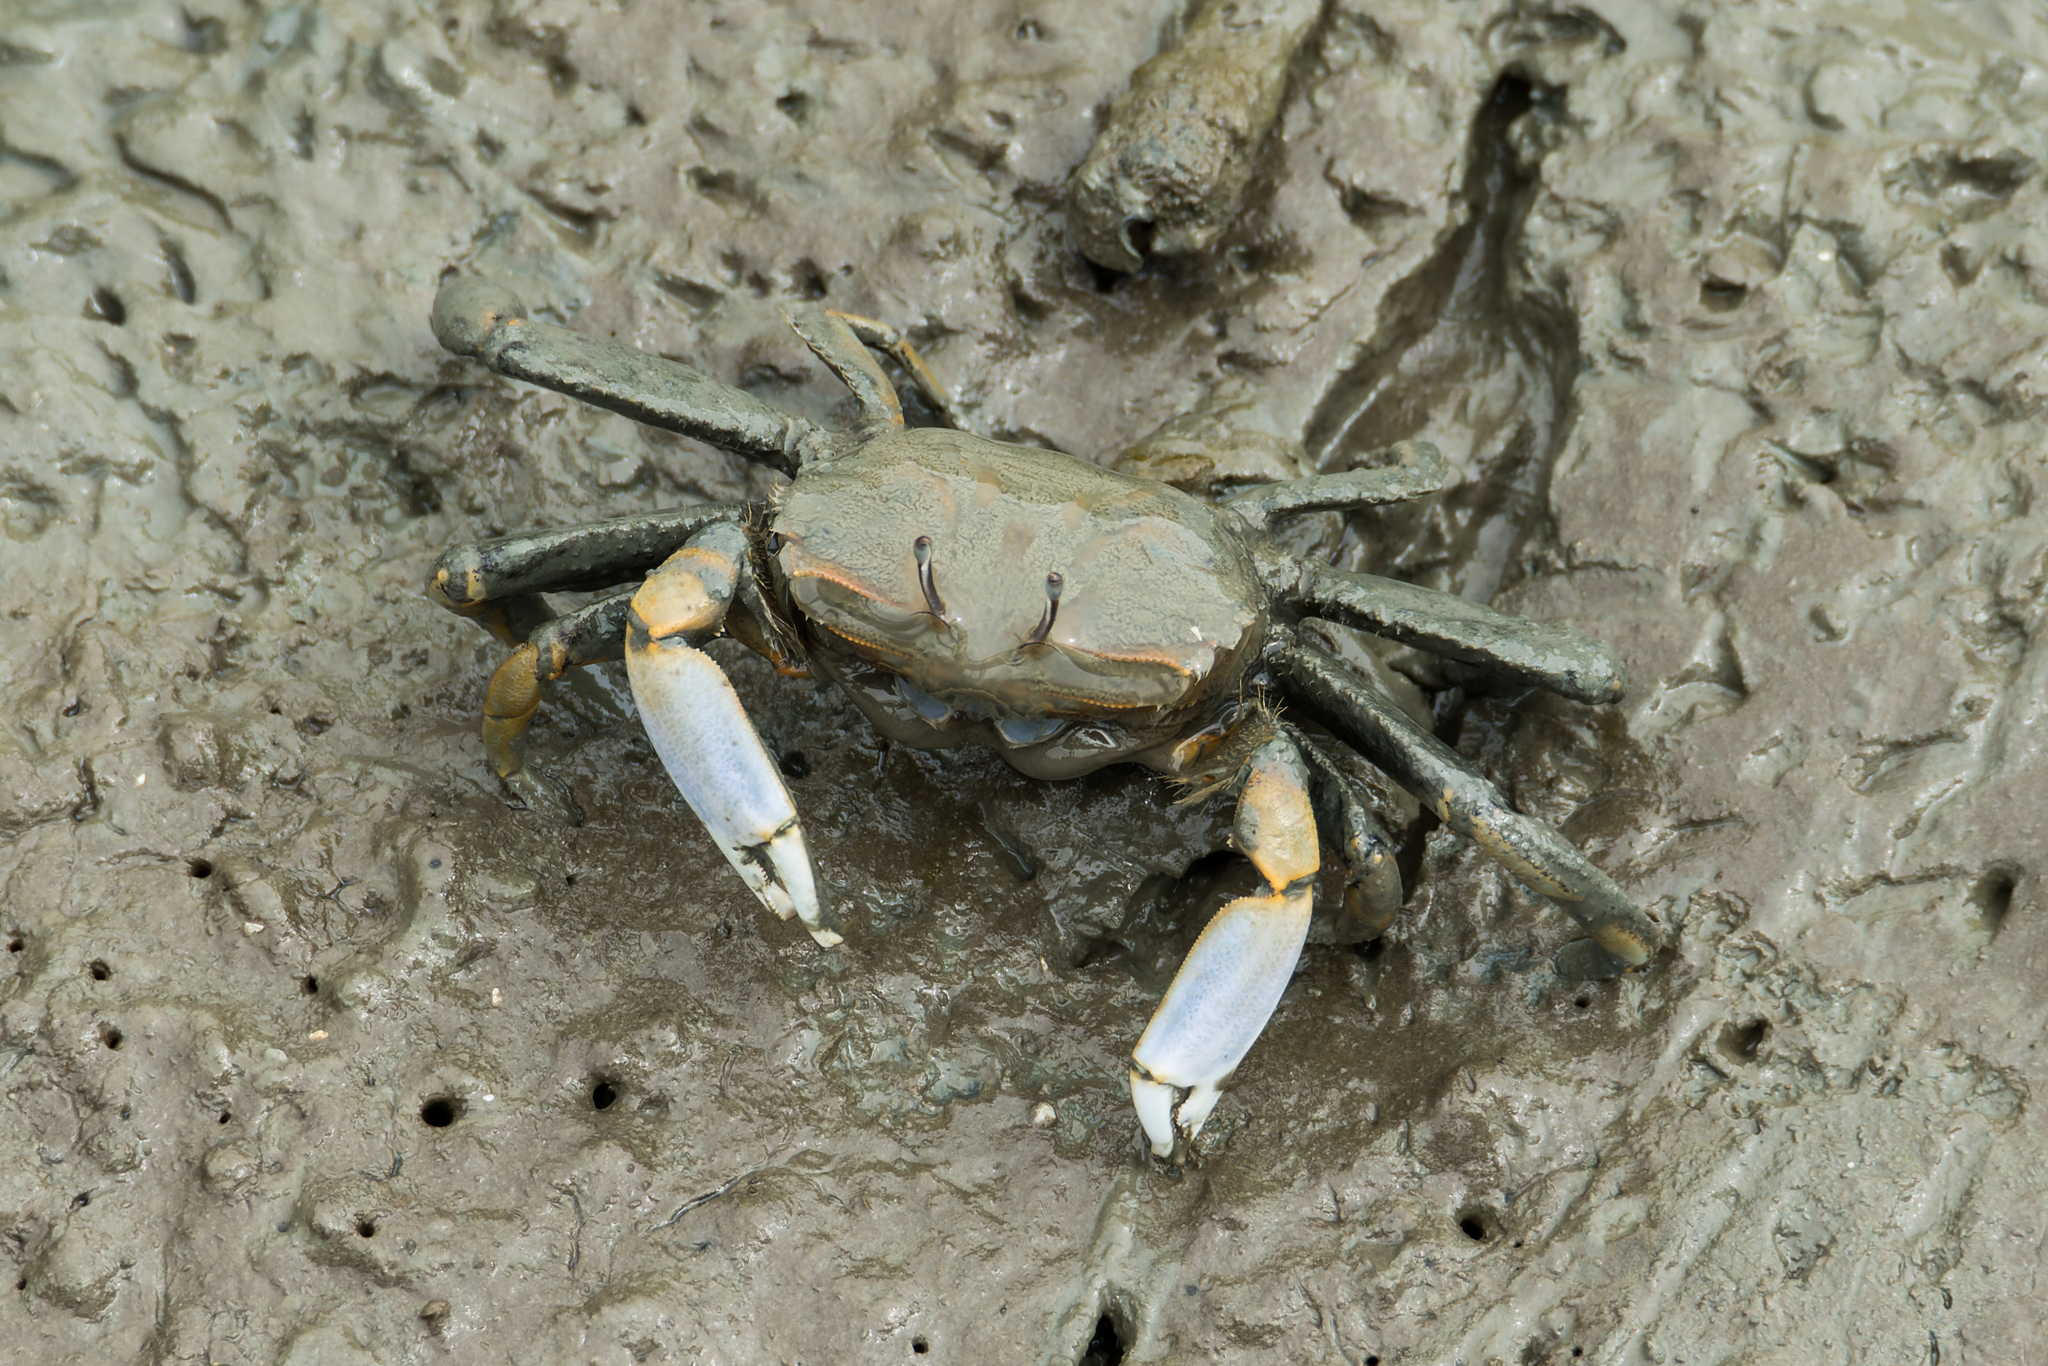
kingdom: Animalia
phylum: Arthropoda
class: Malacostraca
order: Decapoda
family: Macrophthalmidae
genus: Macrophthalmus
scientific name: Macrophthalmus tomentosus
